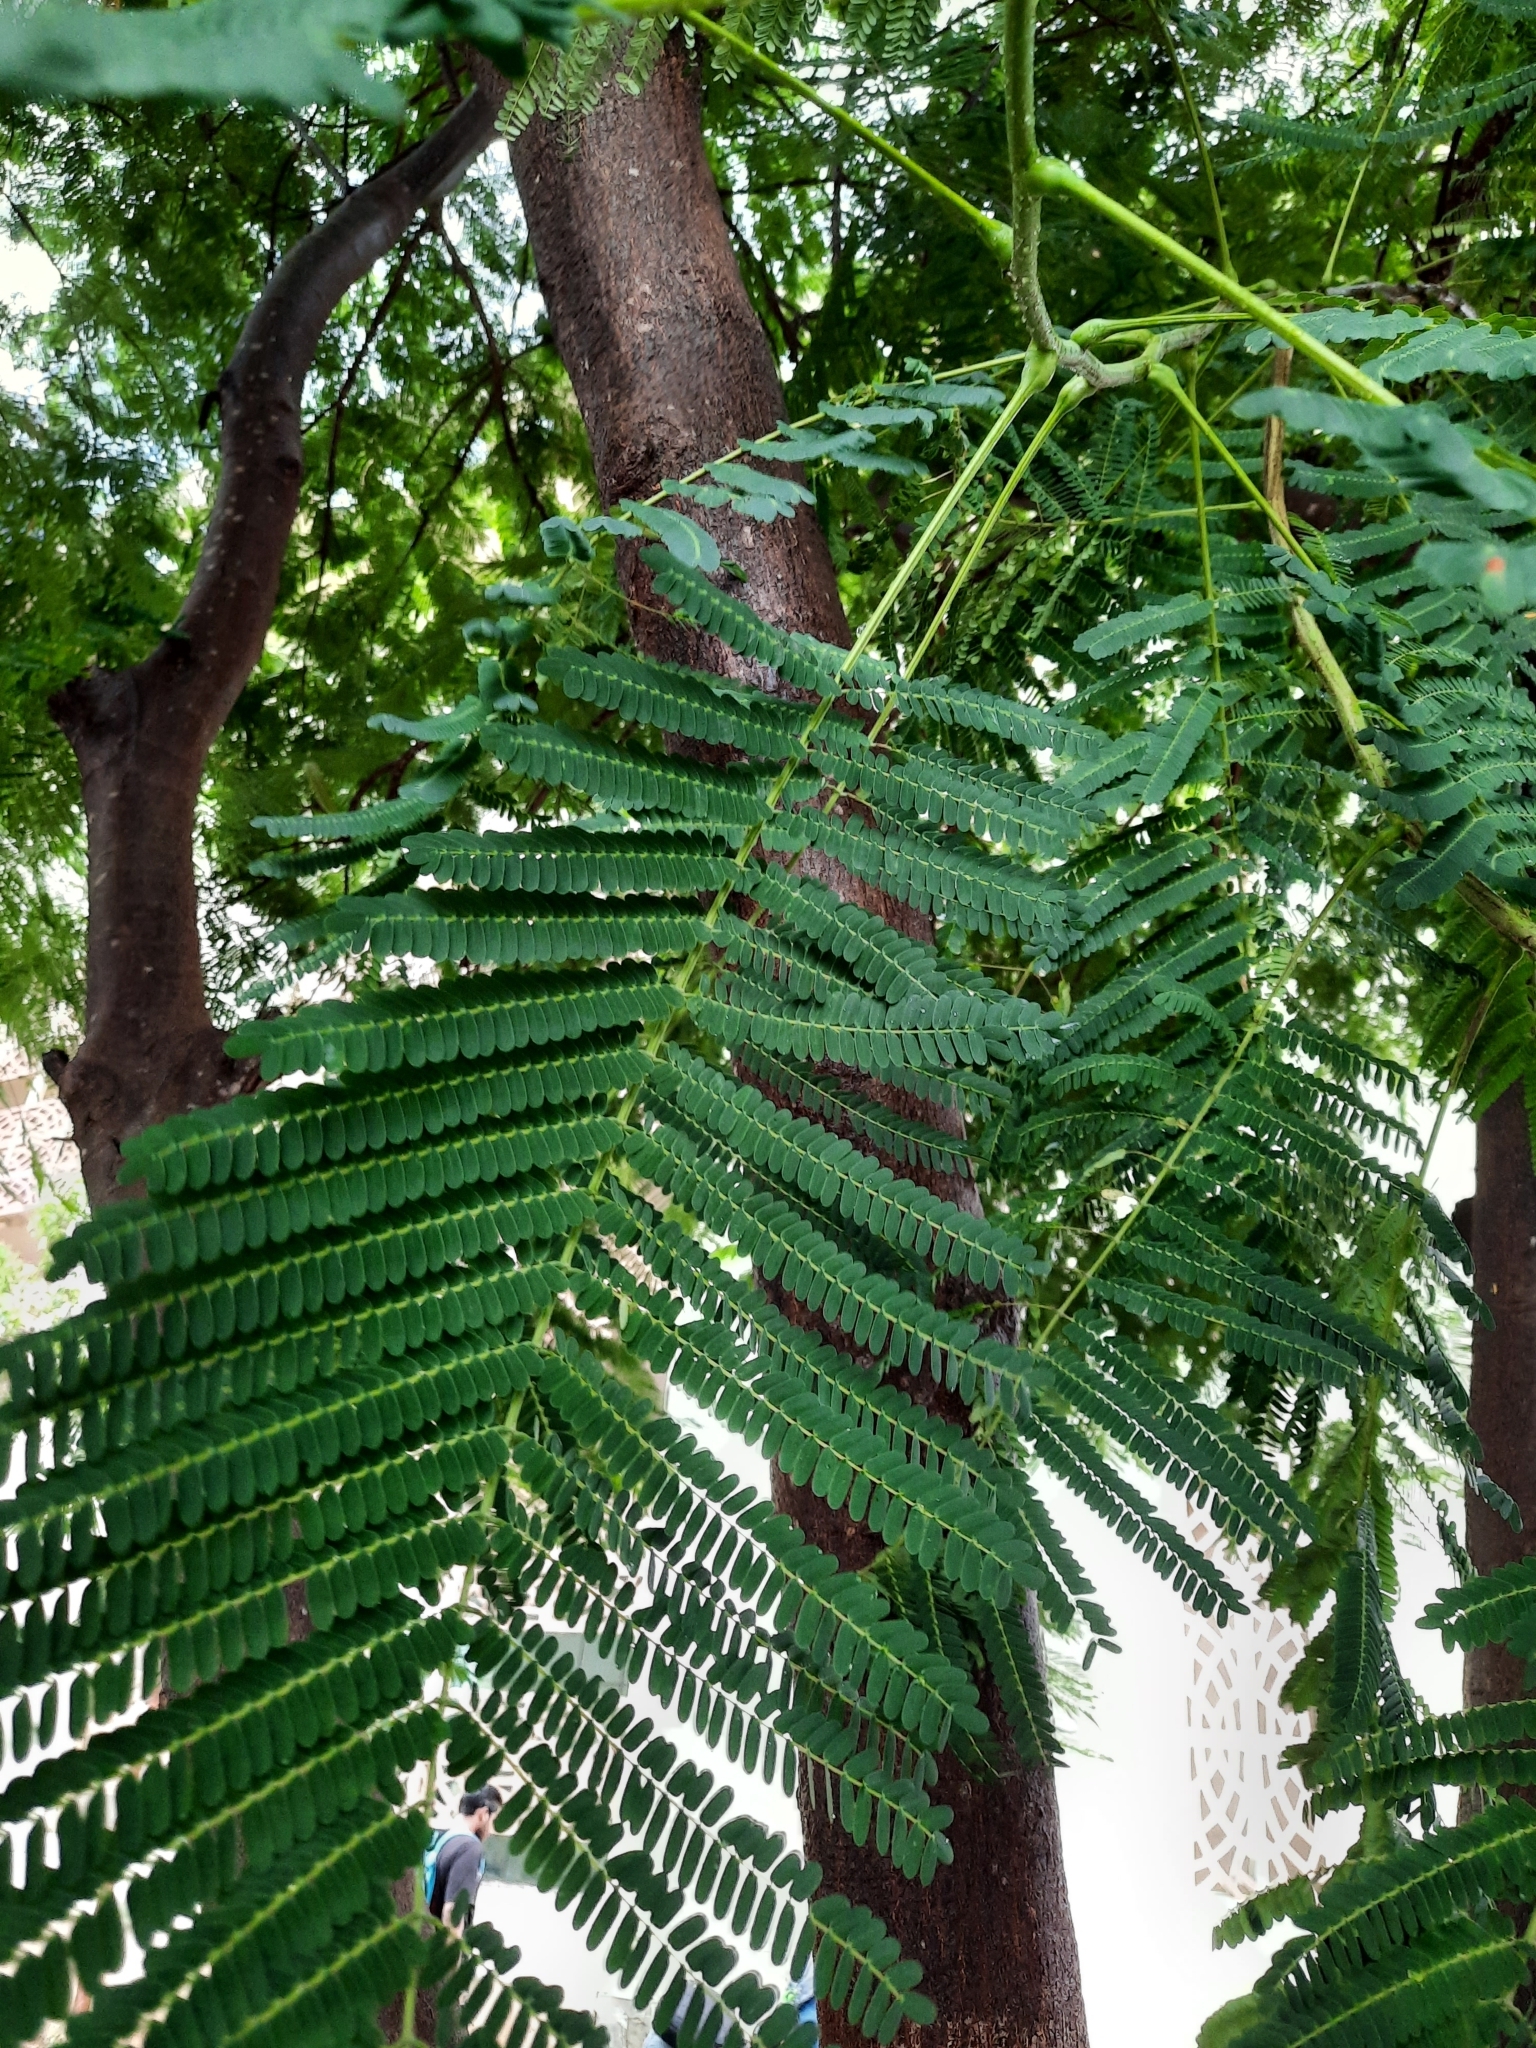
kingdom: Plantae
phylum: Tracheophyta
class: Magnoliopsida
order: Fabales
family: Fabaceae
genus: Delonix
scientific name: Delonix regia
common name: Royal poinciana
